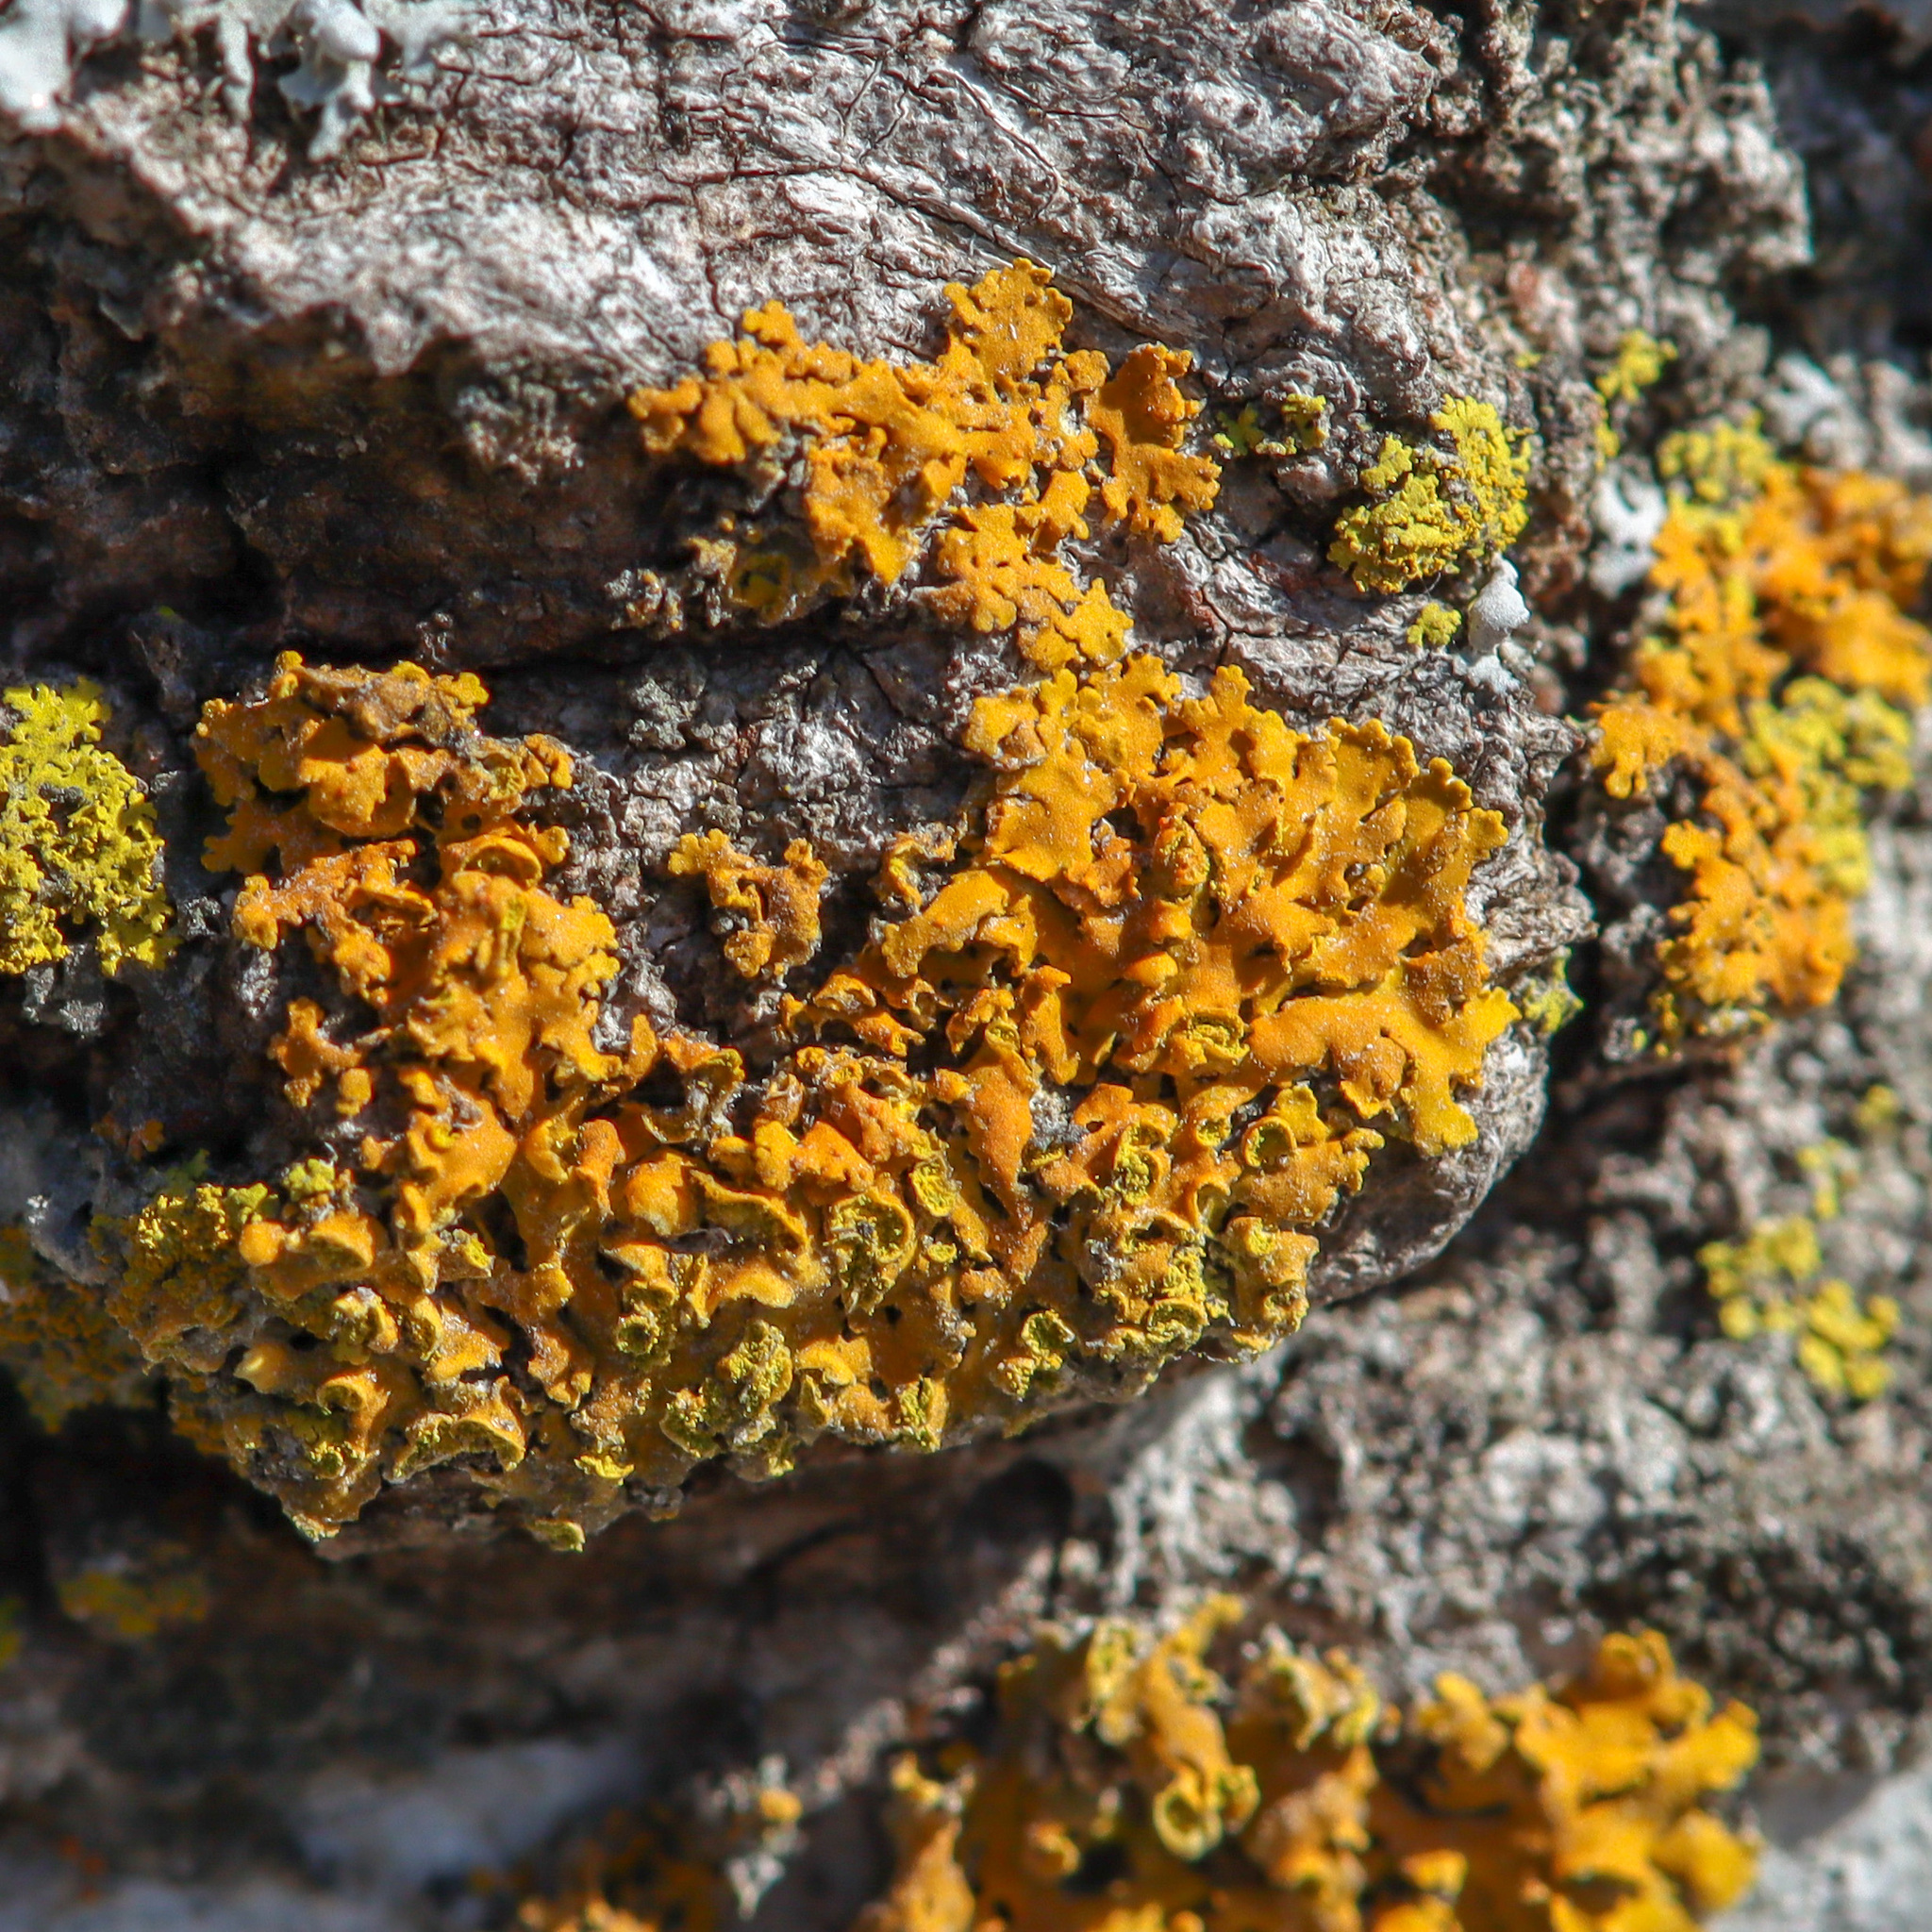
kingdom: Fungi
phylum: Ascomycota
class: Lecanoromycetes
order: Teloschistales
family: Teloschistaceae
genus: Oxneria
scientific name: Oxneria fallax
